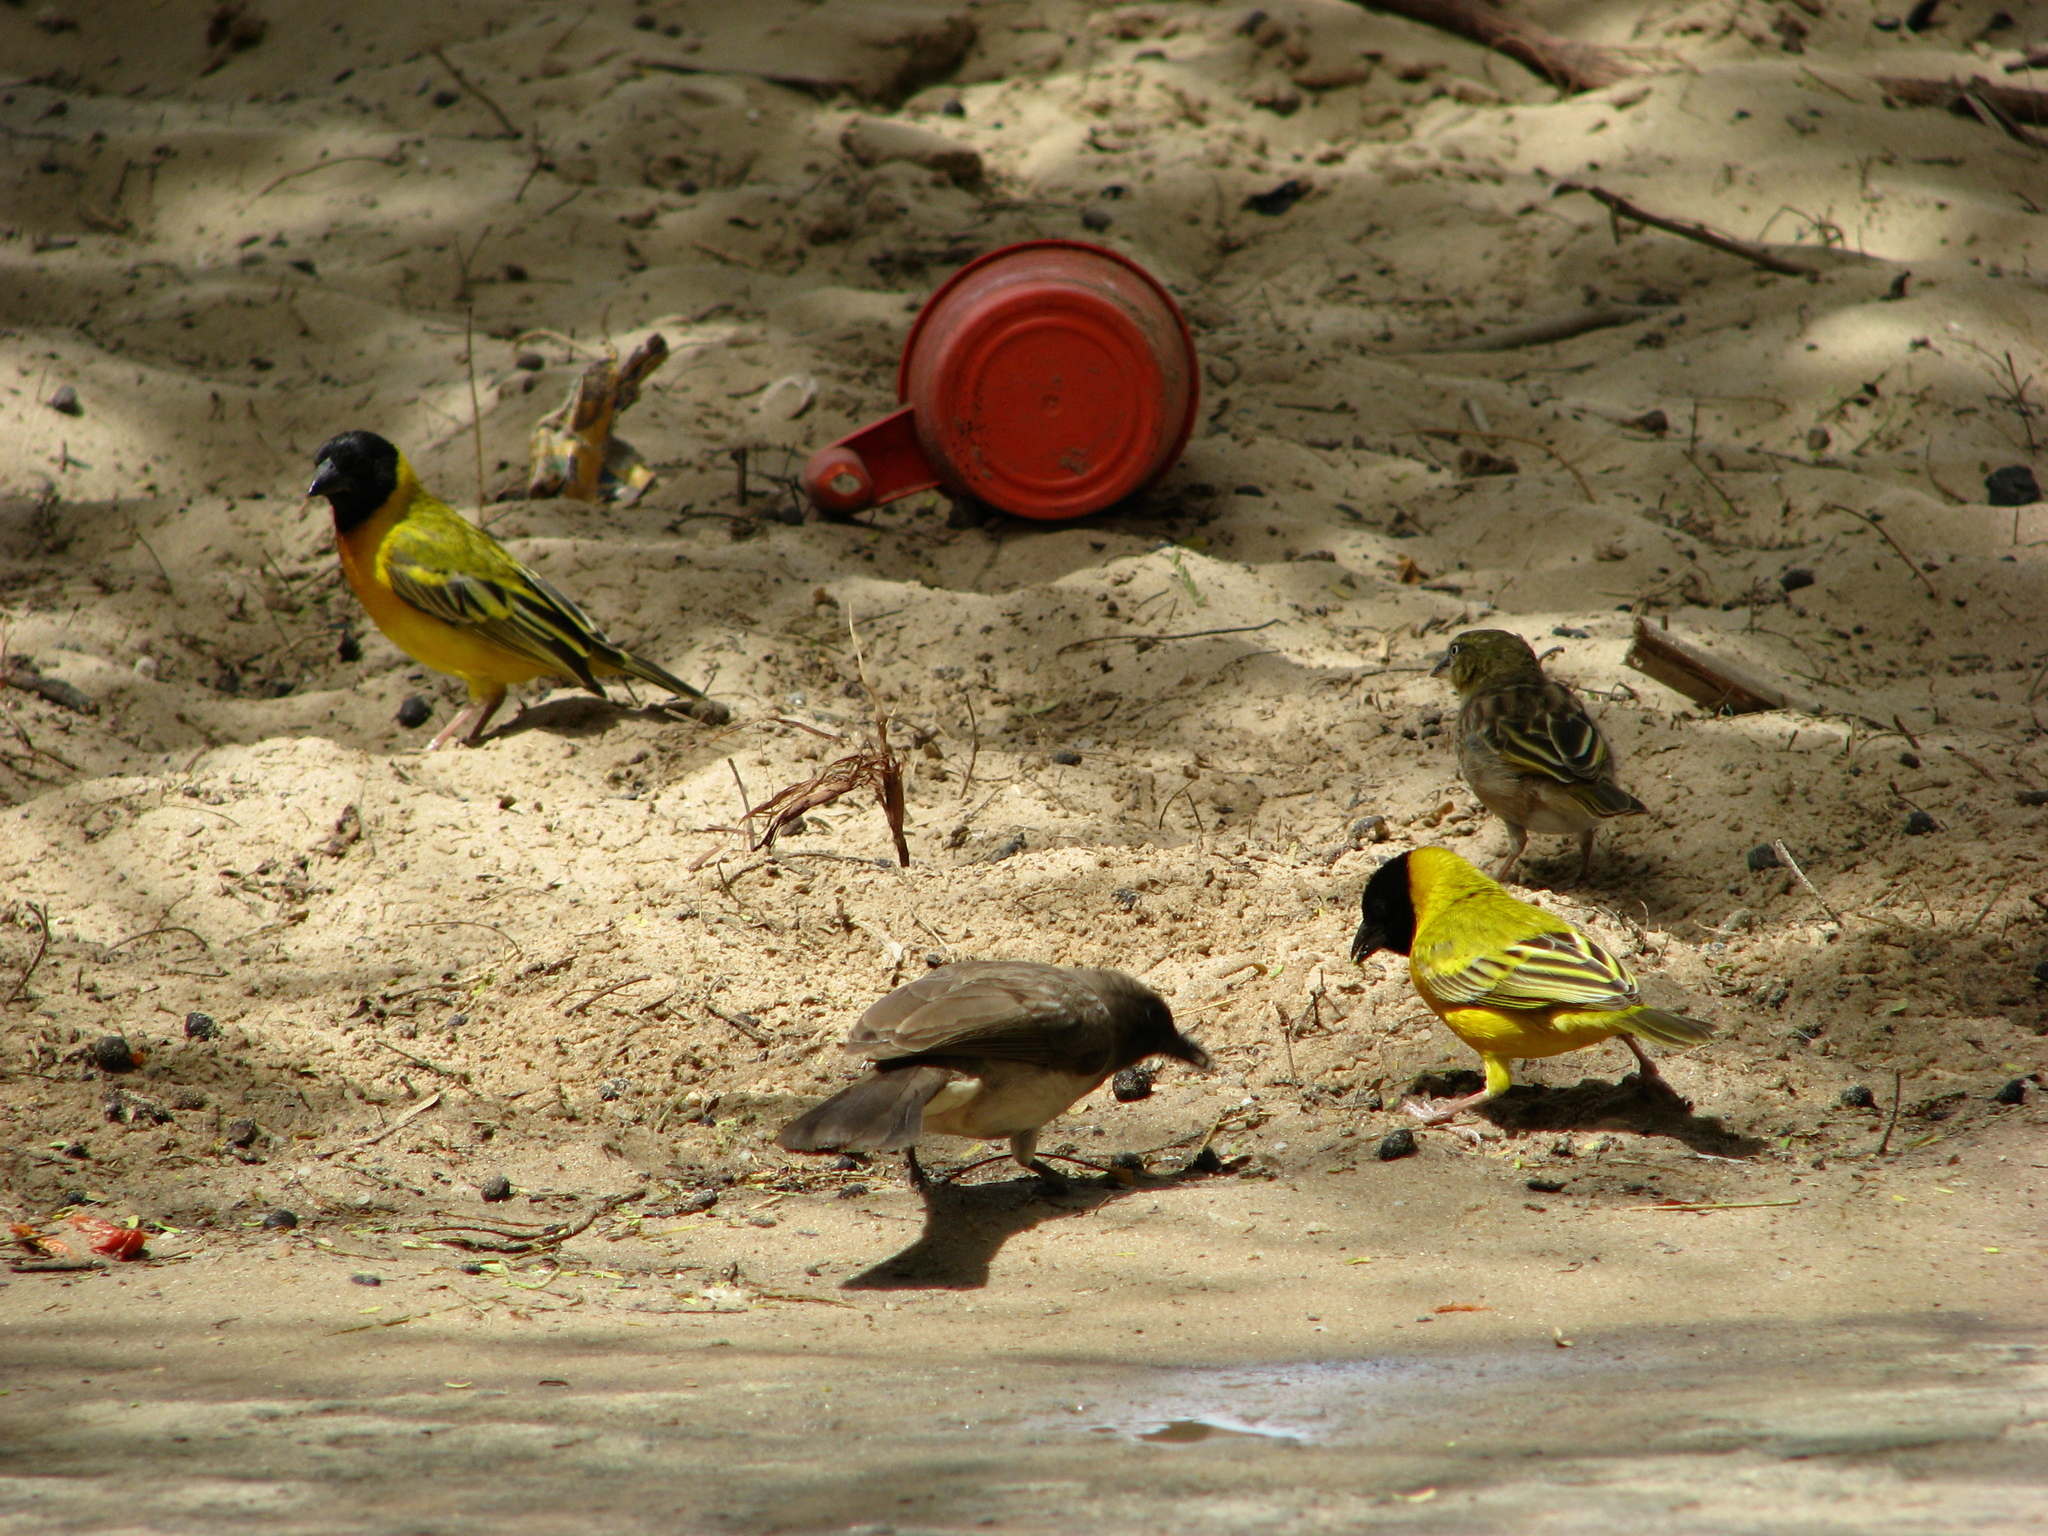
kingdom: Animalia
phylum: Chordata
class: Aves
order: Passeriformes
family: Pycnonotidae
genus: Pycnonotus
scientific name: Pycnonotus barbatus
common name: Common bulbul
